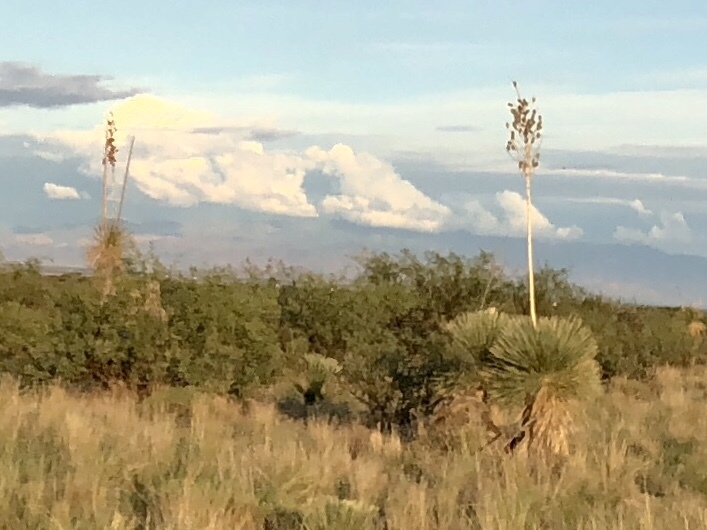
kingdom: Plantae
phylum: Tracheophyta
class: Liliopsida
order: Asparagales
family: Asparagaceae
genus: Yucca
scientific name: Yucca elata
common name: Palmella
